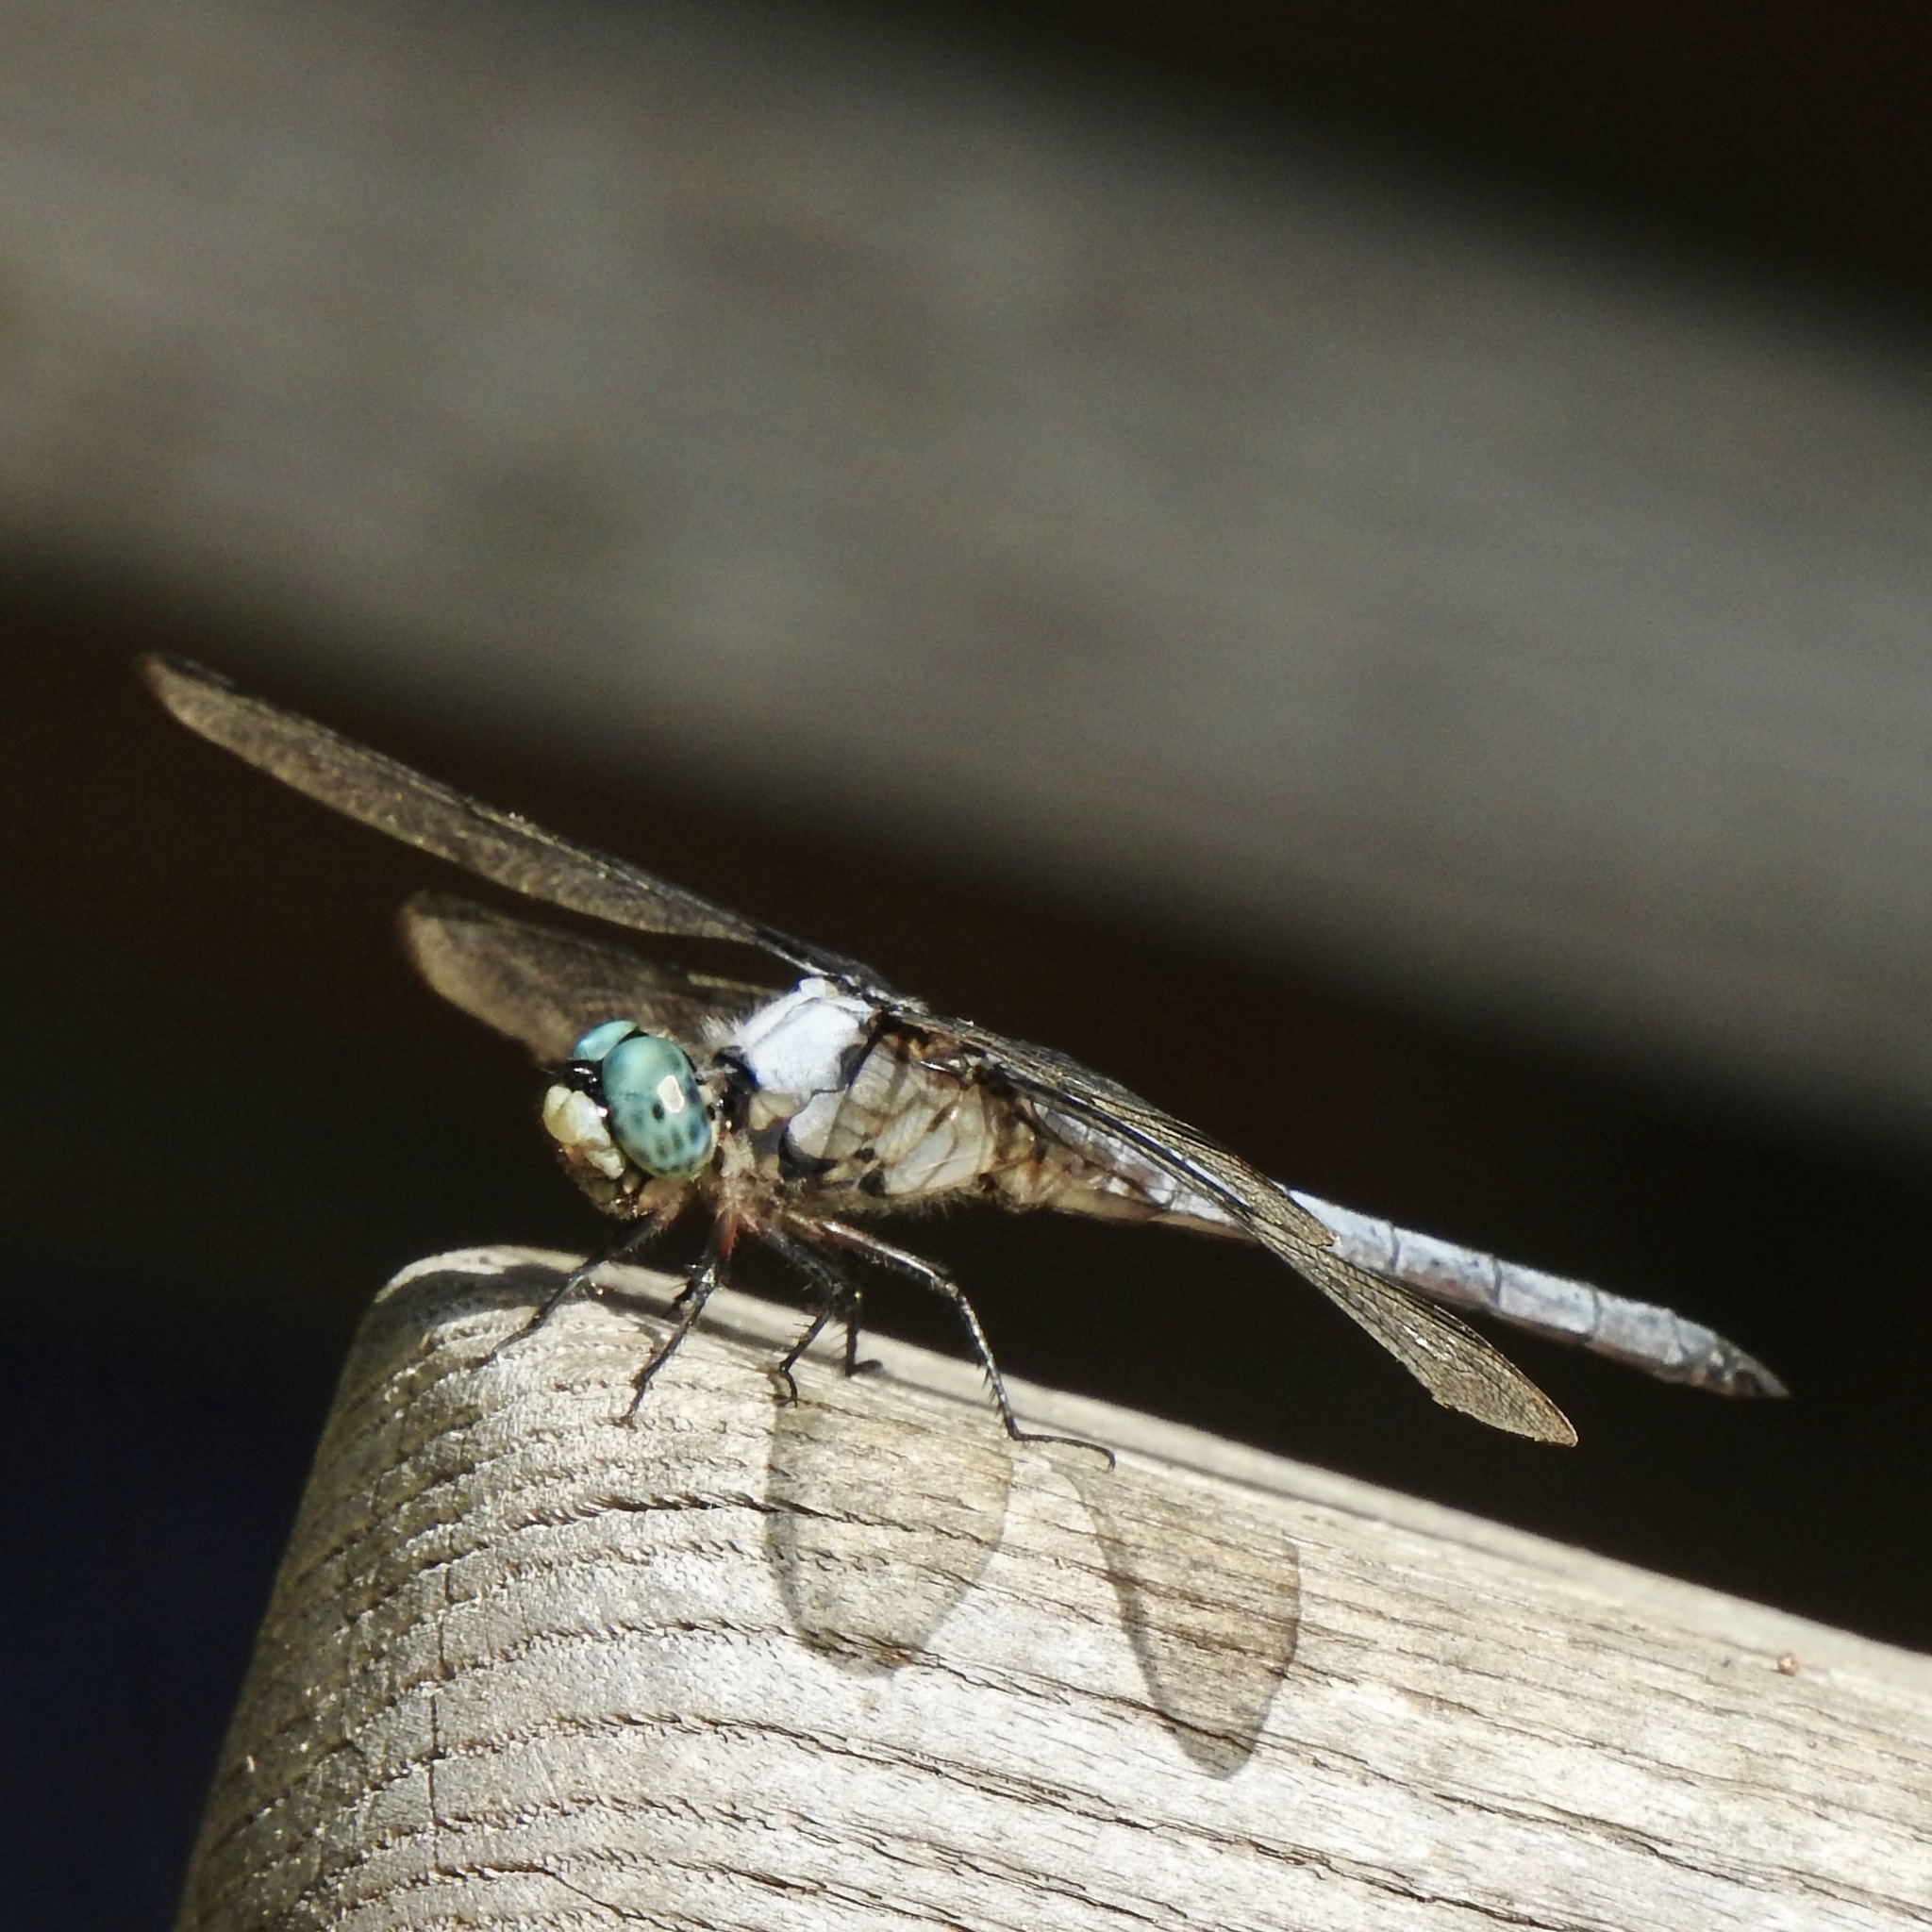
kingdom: Animalia
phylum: Arthropoda
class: Insecta
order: Odonata
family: Libellulidae
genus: Libellula
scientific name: Libellula vibrans
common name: Great blue skimmer
